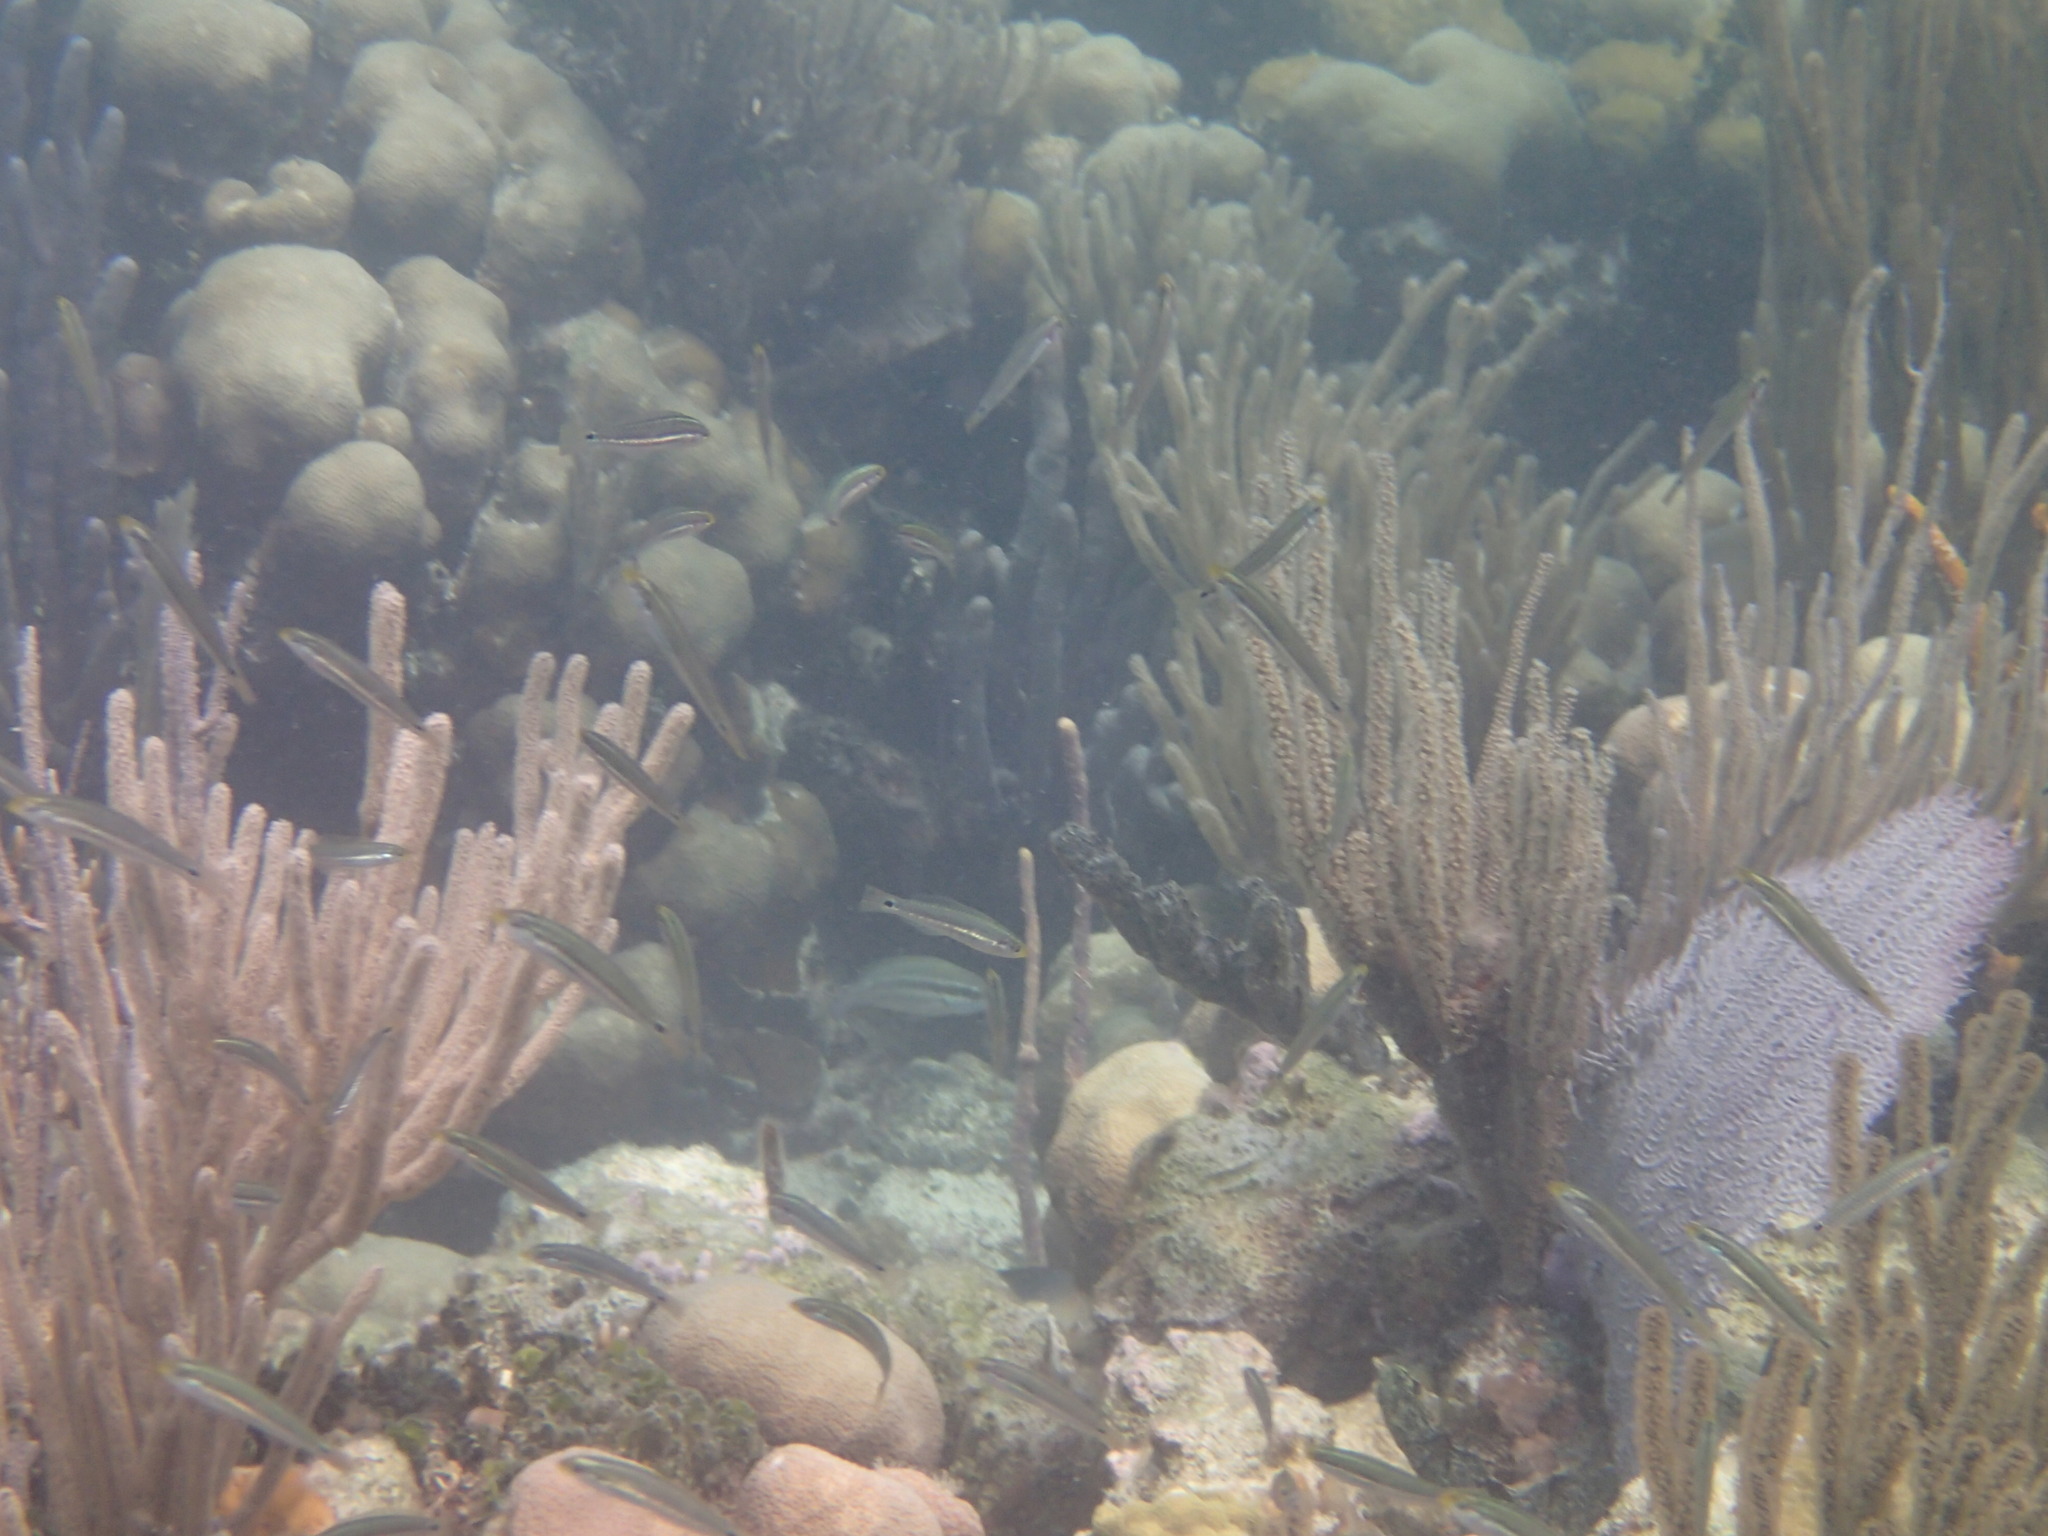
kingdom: Animalia
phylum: Chordata
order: Perciformes
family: Labridae
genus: Halichoeres
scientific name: Halichoeres socialis
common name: Social wrasse
